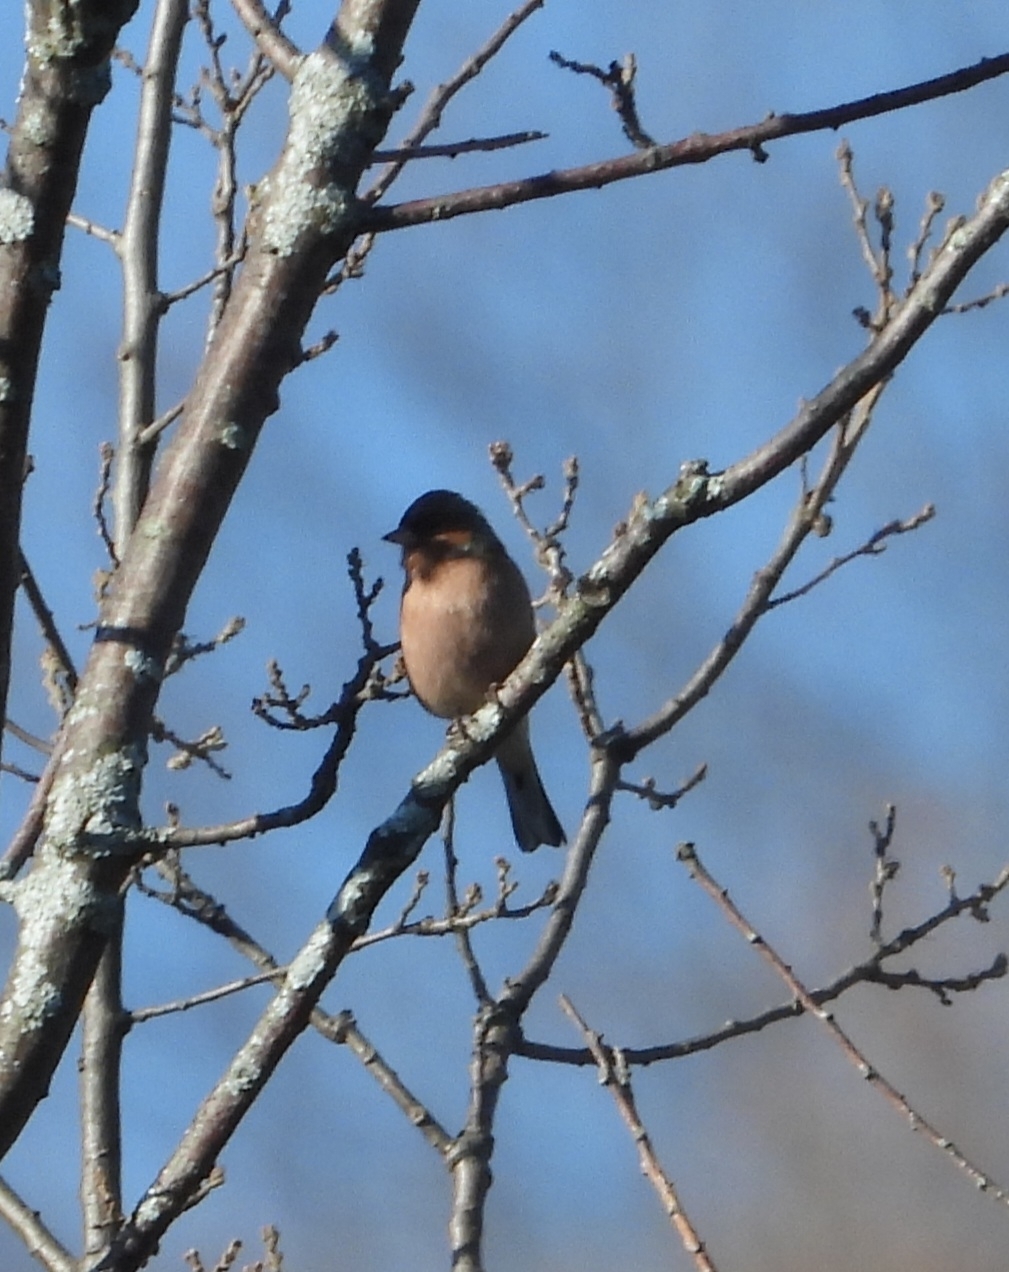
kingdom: Animalia
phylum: Chordata
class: Aves
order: Passeriformes
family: Fringillidae
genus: Fringilla
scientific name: Fringilla coelebs
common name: Common chaffinch
